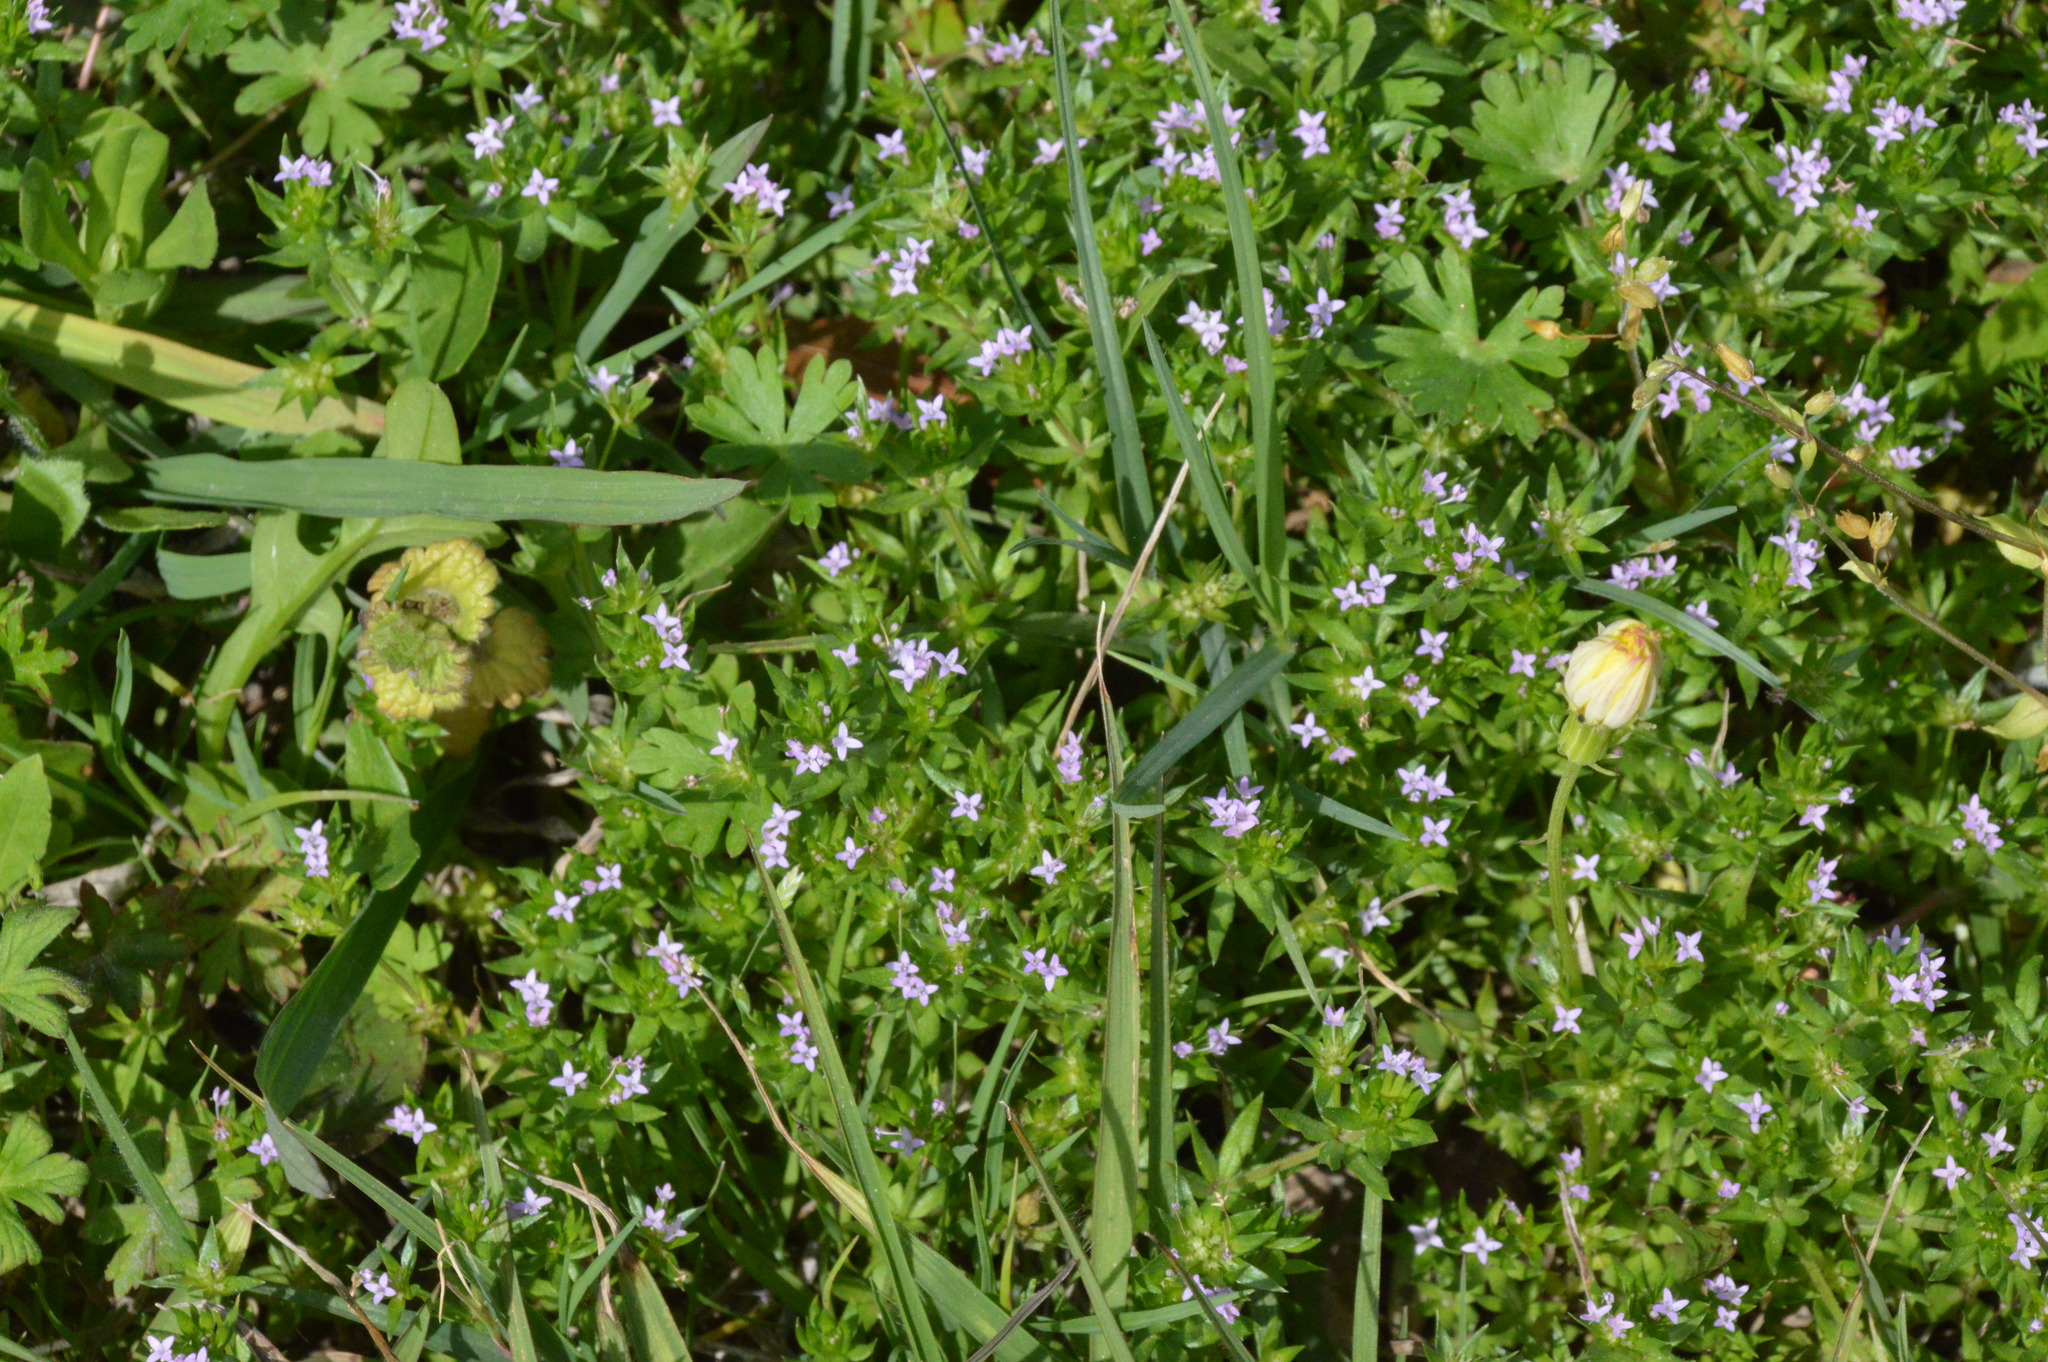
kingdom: Plantae
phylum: Tracheophyta
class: Magnoliopsida
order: Gentianales
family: Rubiaceae
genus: Sherardia
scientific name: Sherardia arvensis
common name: Field madder
